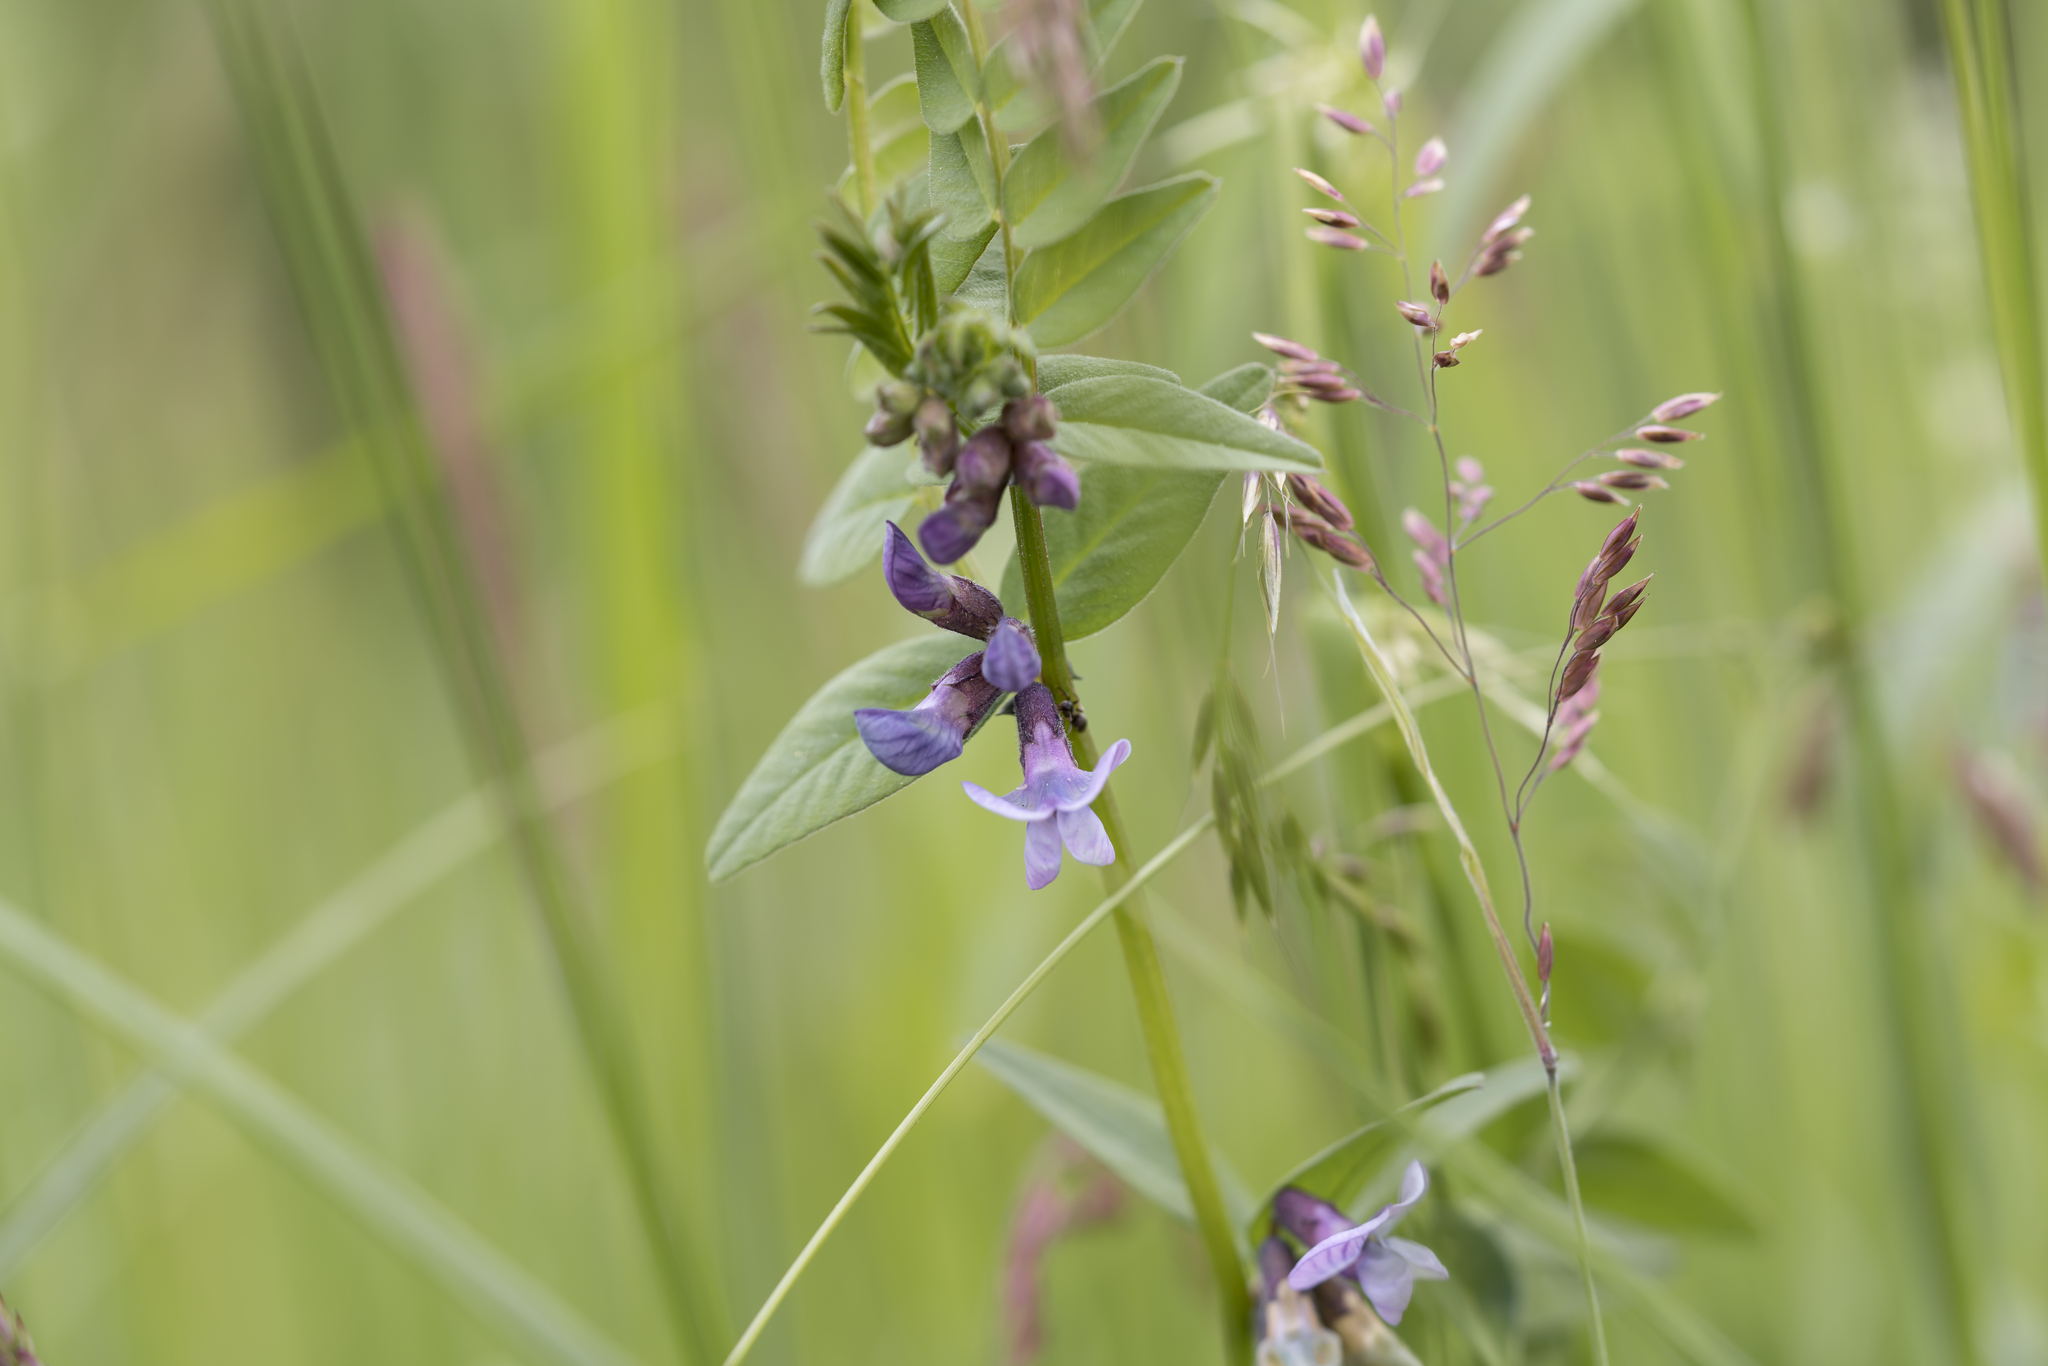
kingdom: Plantae
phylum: Tracheophyta
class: Magnoliopsida
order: Fabales
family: Fabaceae
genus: Vicia
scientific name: Vicia sepium
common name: Bush vetch
